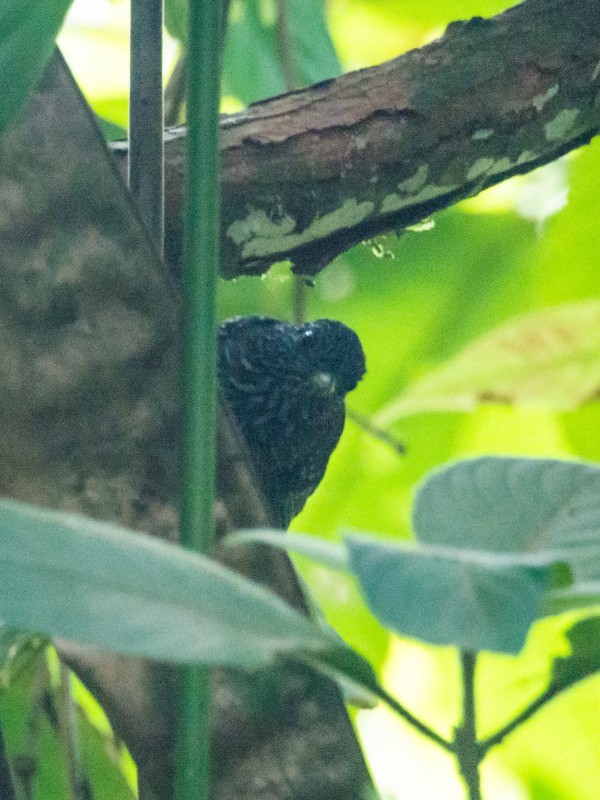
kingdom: Animalia
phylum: Chordata
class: Aves
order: Passeriformes
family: Thamnophilidae
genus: Thamnophilus
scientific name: Thamnophilus bridgesi
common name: Black-hooded antshrike
